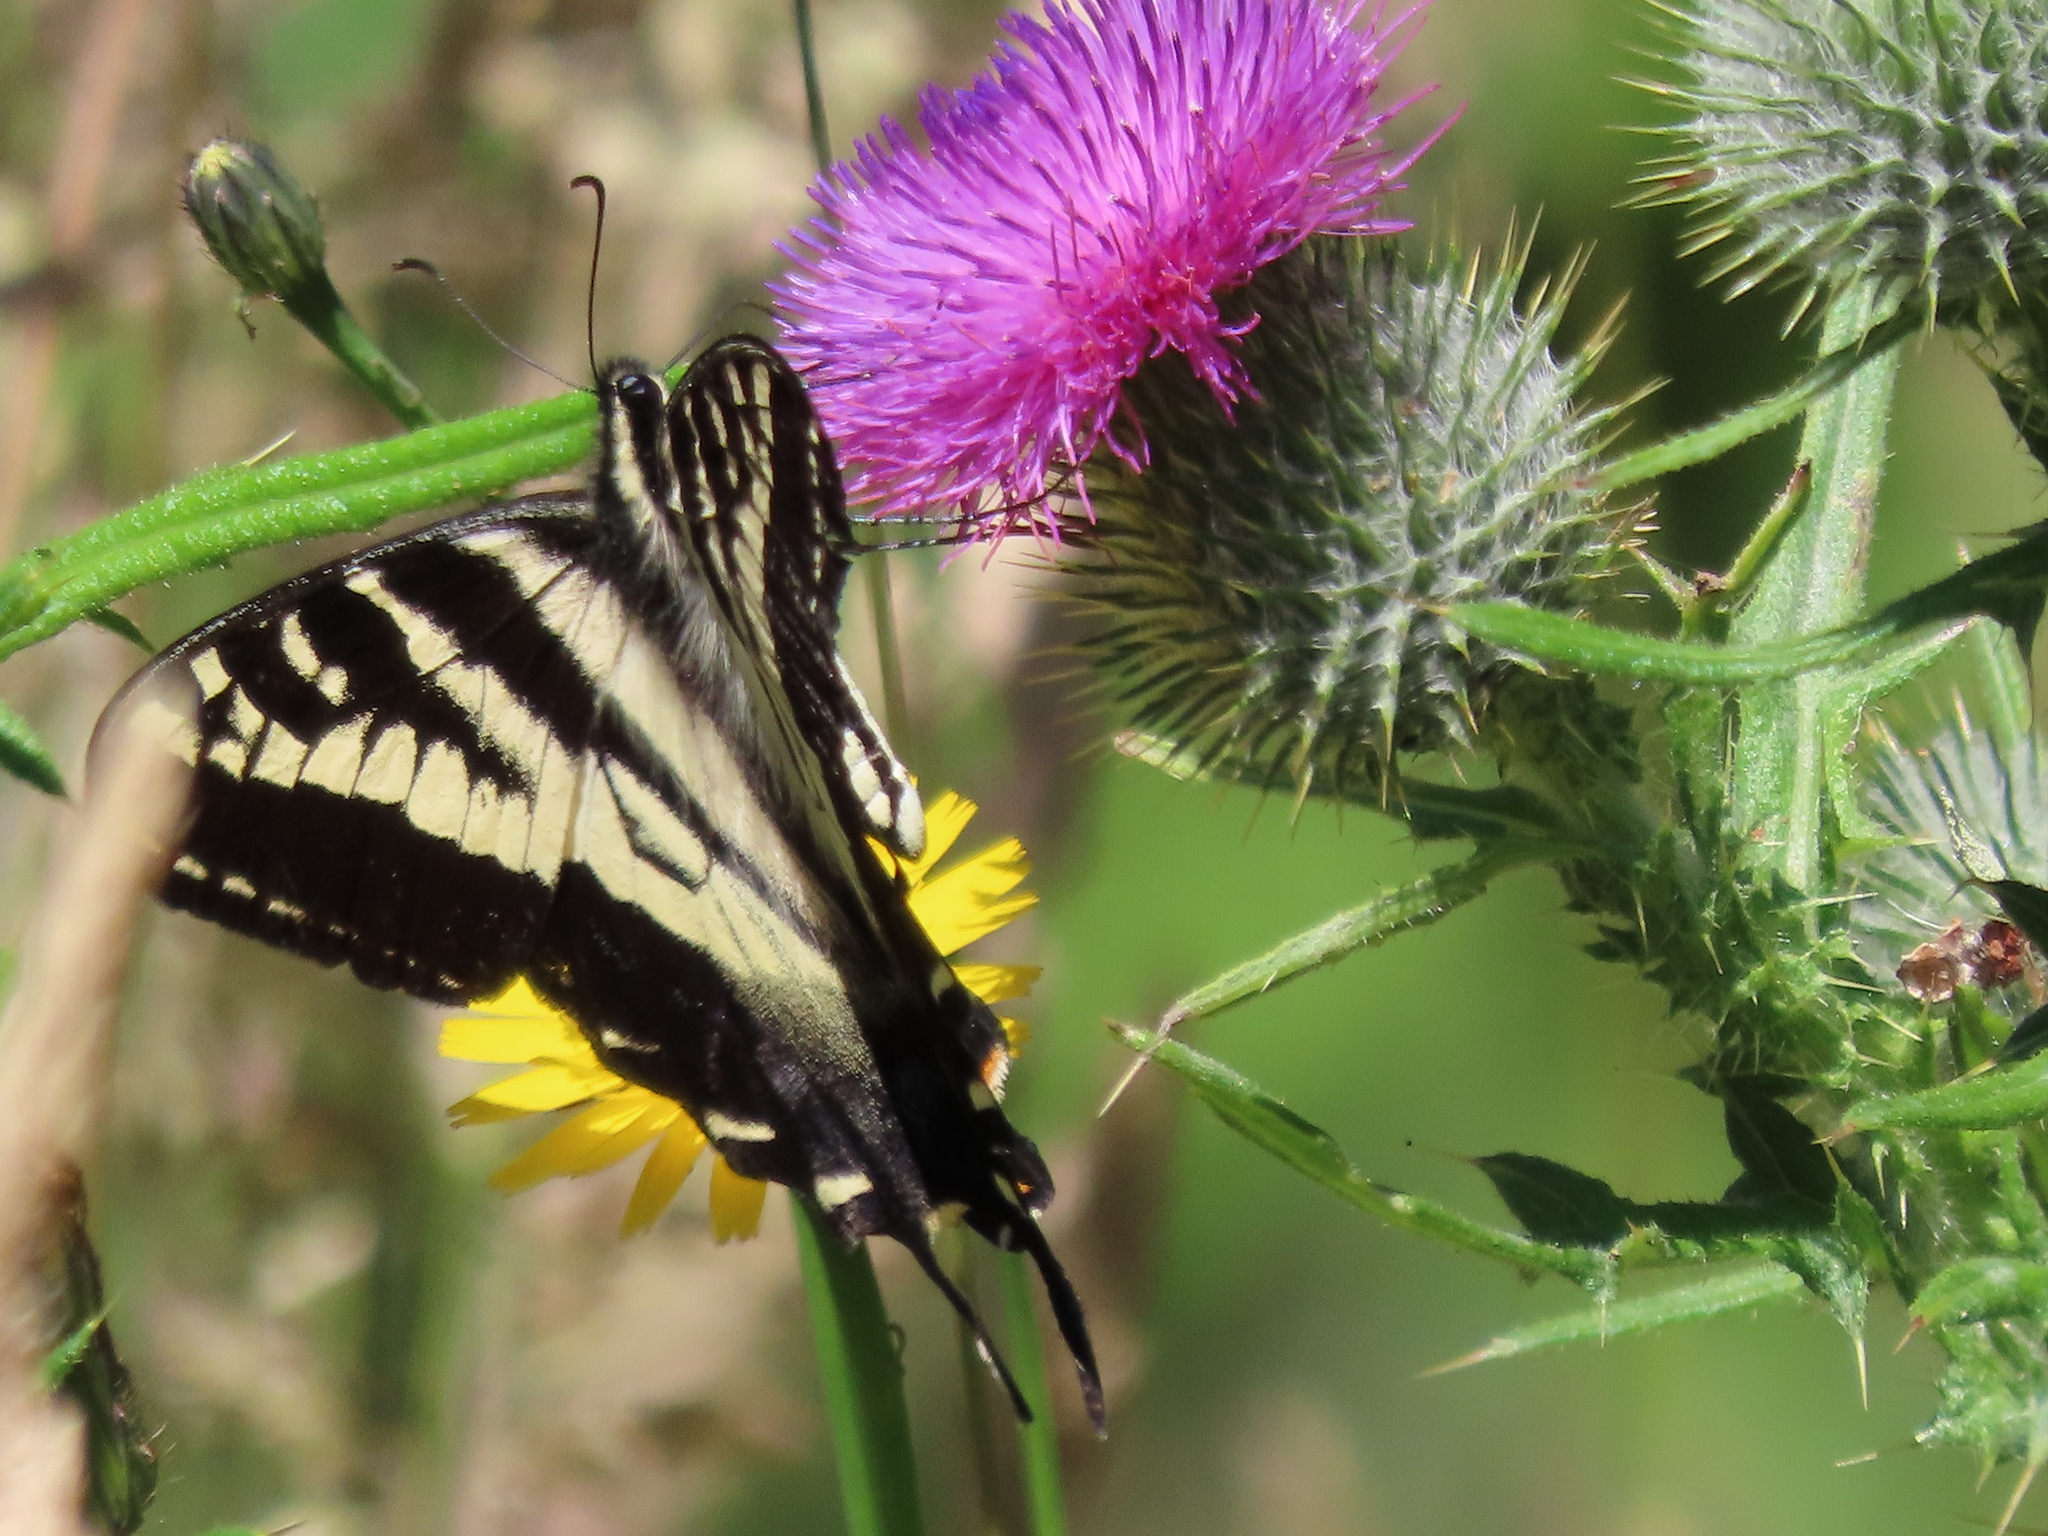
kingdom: Animalia
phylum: Arthropoda
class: Insecta
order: Lepidoptera
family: Papilionidae
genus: Papilio
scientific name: Papilio eurymedon
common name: Pale tiger swallowtail
